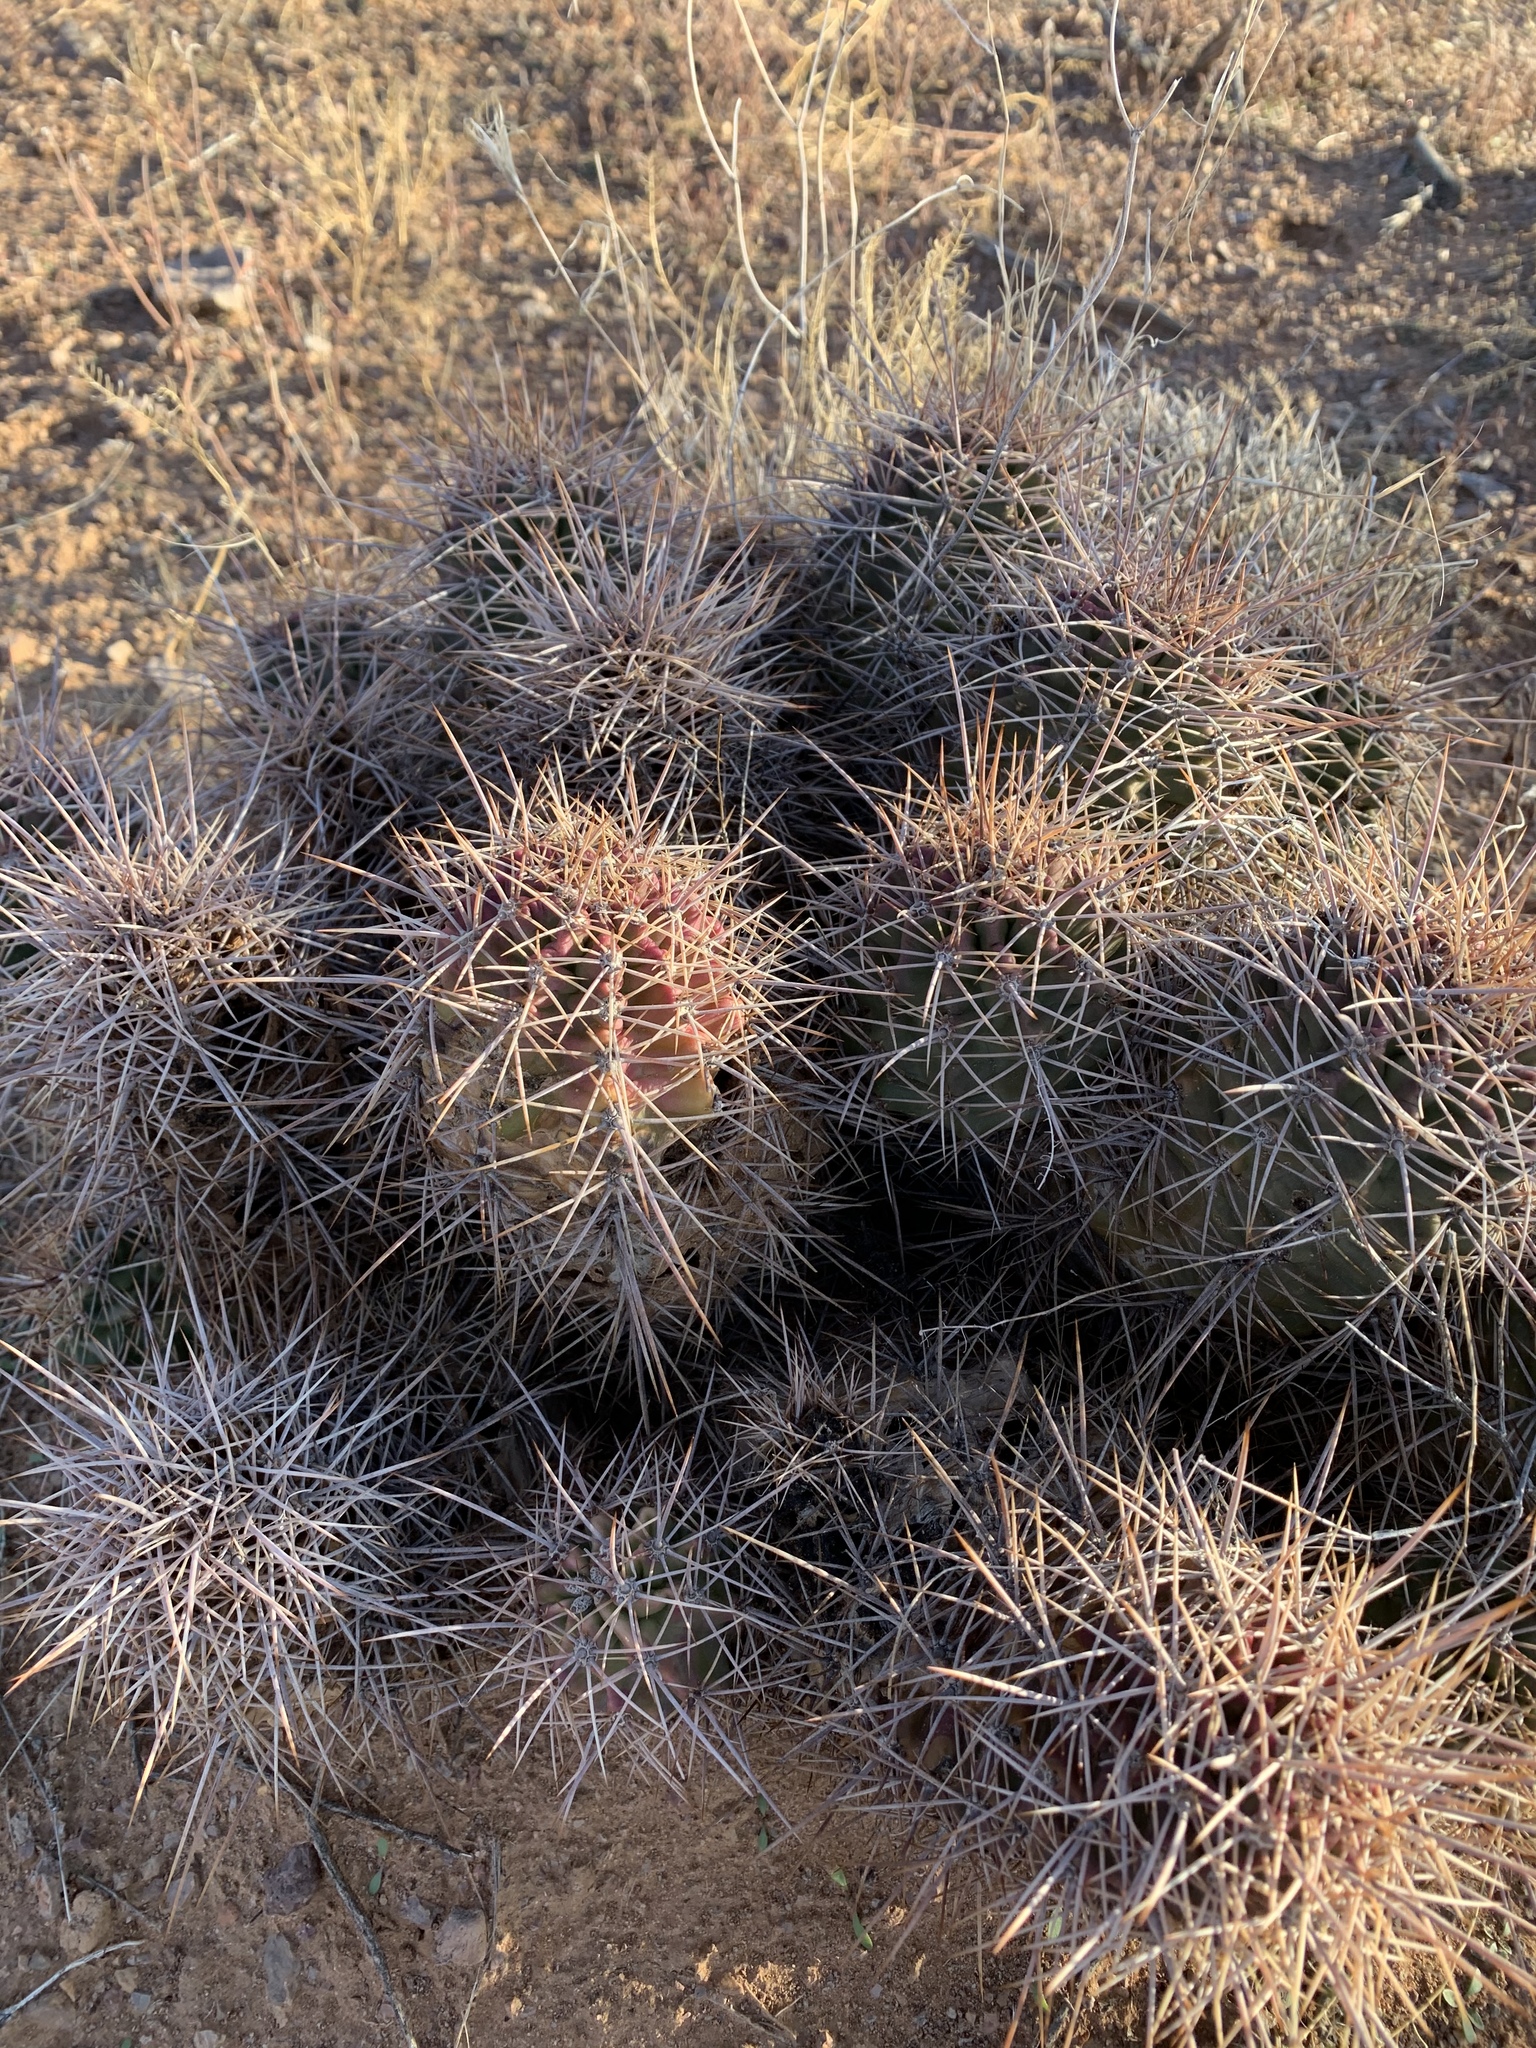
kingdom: Plantae
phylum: Tracheophyta
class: Magnoliopsida
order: Caryophyllales
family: Cactaceae
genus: Echinocereus
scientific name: Echinocereus coccineus
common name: Scarlet hedgehog cactus
